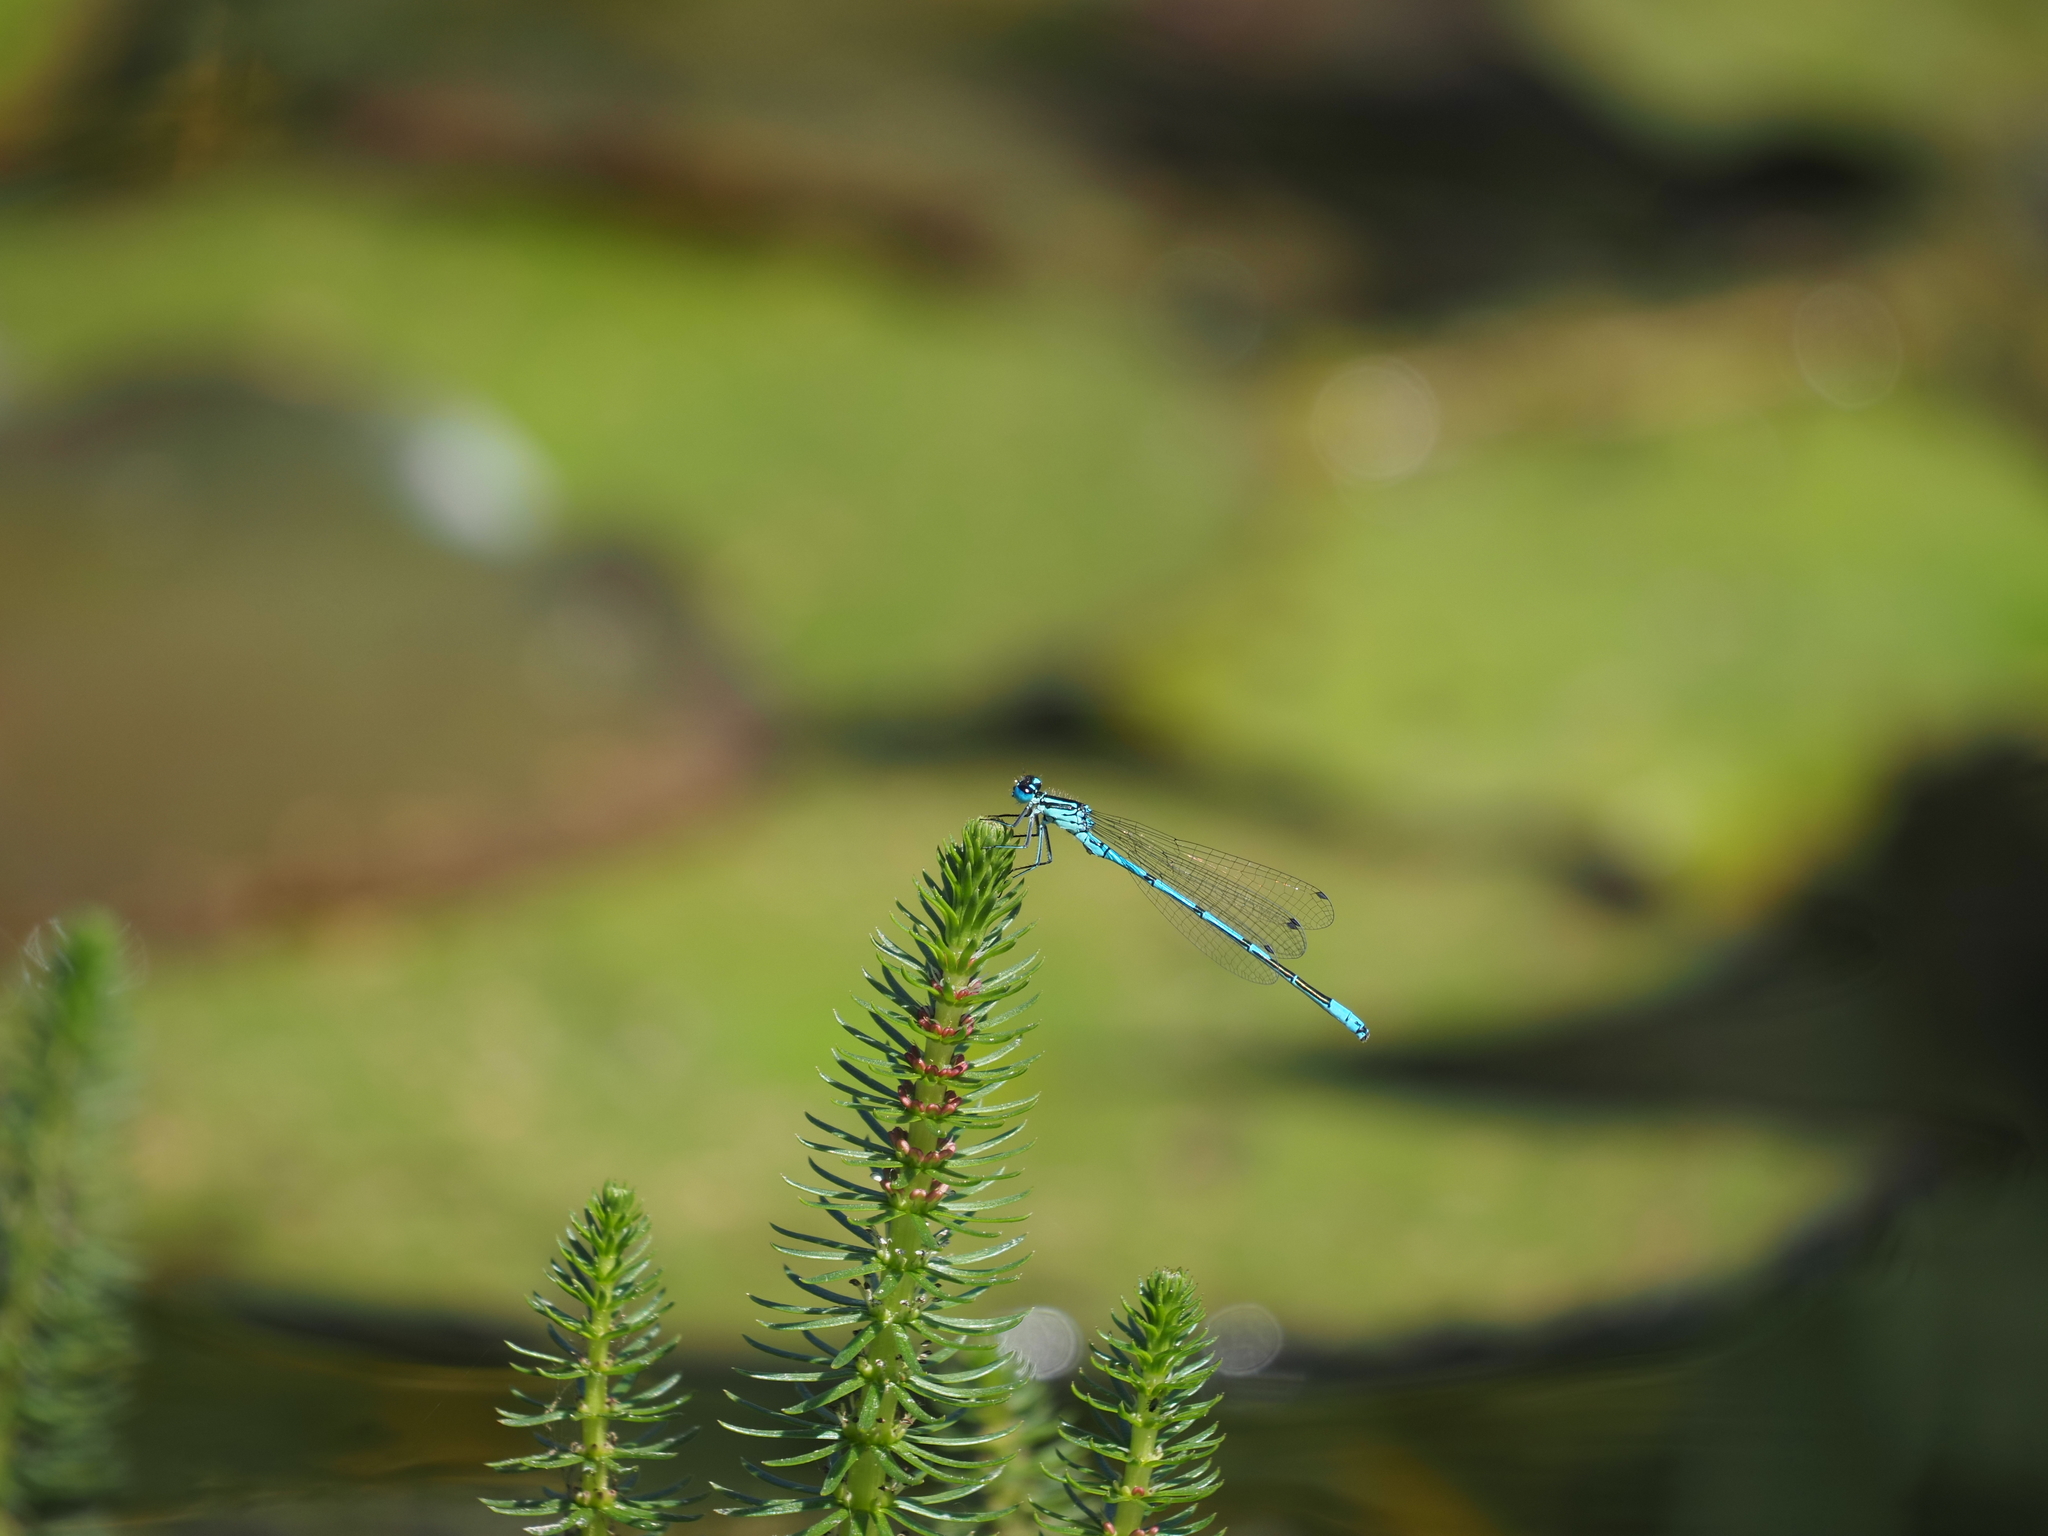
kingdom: Animalia
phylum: Arthropoda
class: Insecta
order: Odonata
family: Coenagrionidae
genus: Coenagrion
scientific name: Coenagrion puella
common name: Azure damselfly
